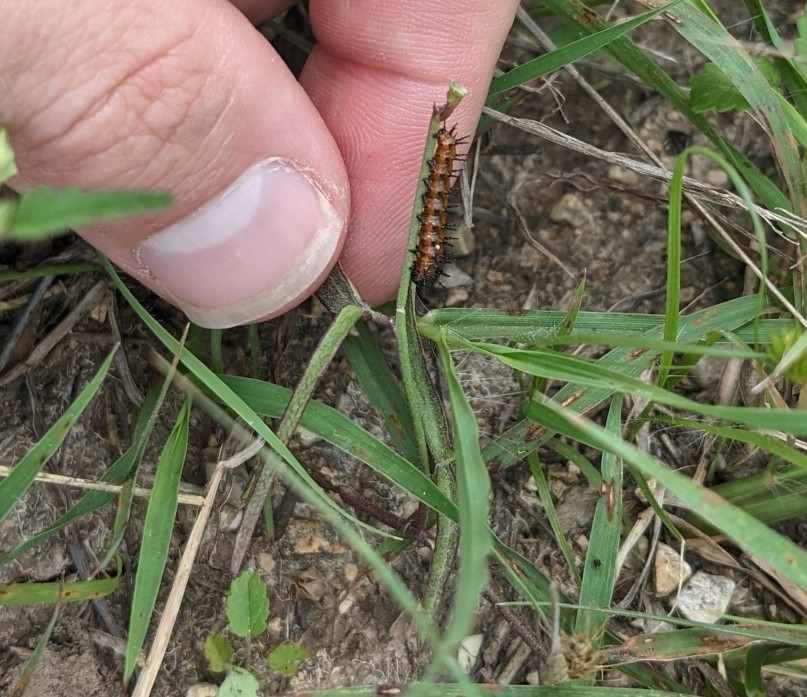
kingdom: Animalia
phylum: Arthropoda
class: Insecta
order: Lepidoptera
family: Nymphalidae
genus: Dione
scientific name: Dione vanillae
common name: Gulf fritillary
